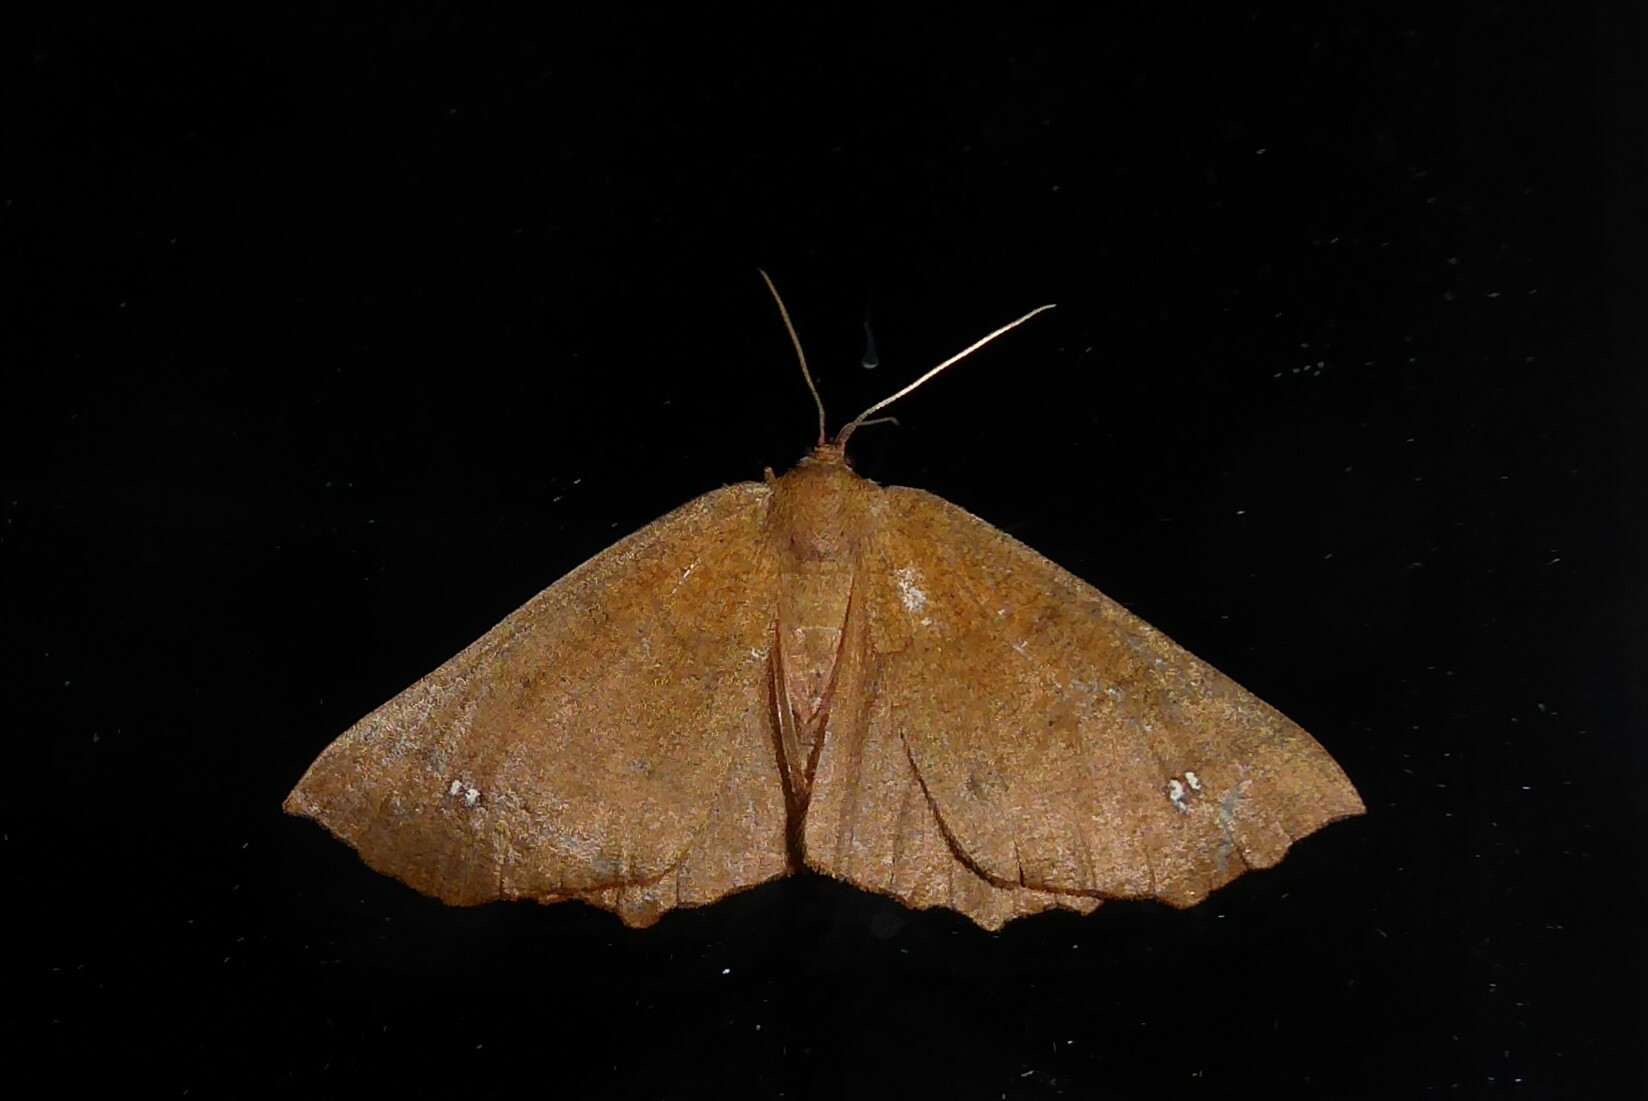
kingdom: Animalia
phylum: Arthropoda
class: Insecta
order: Lepidoptera
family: Geometridae
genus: Xyridacma
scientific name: Xyridacma ustaria
